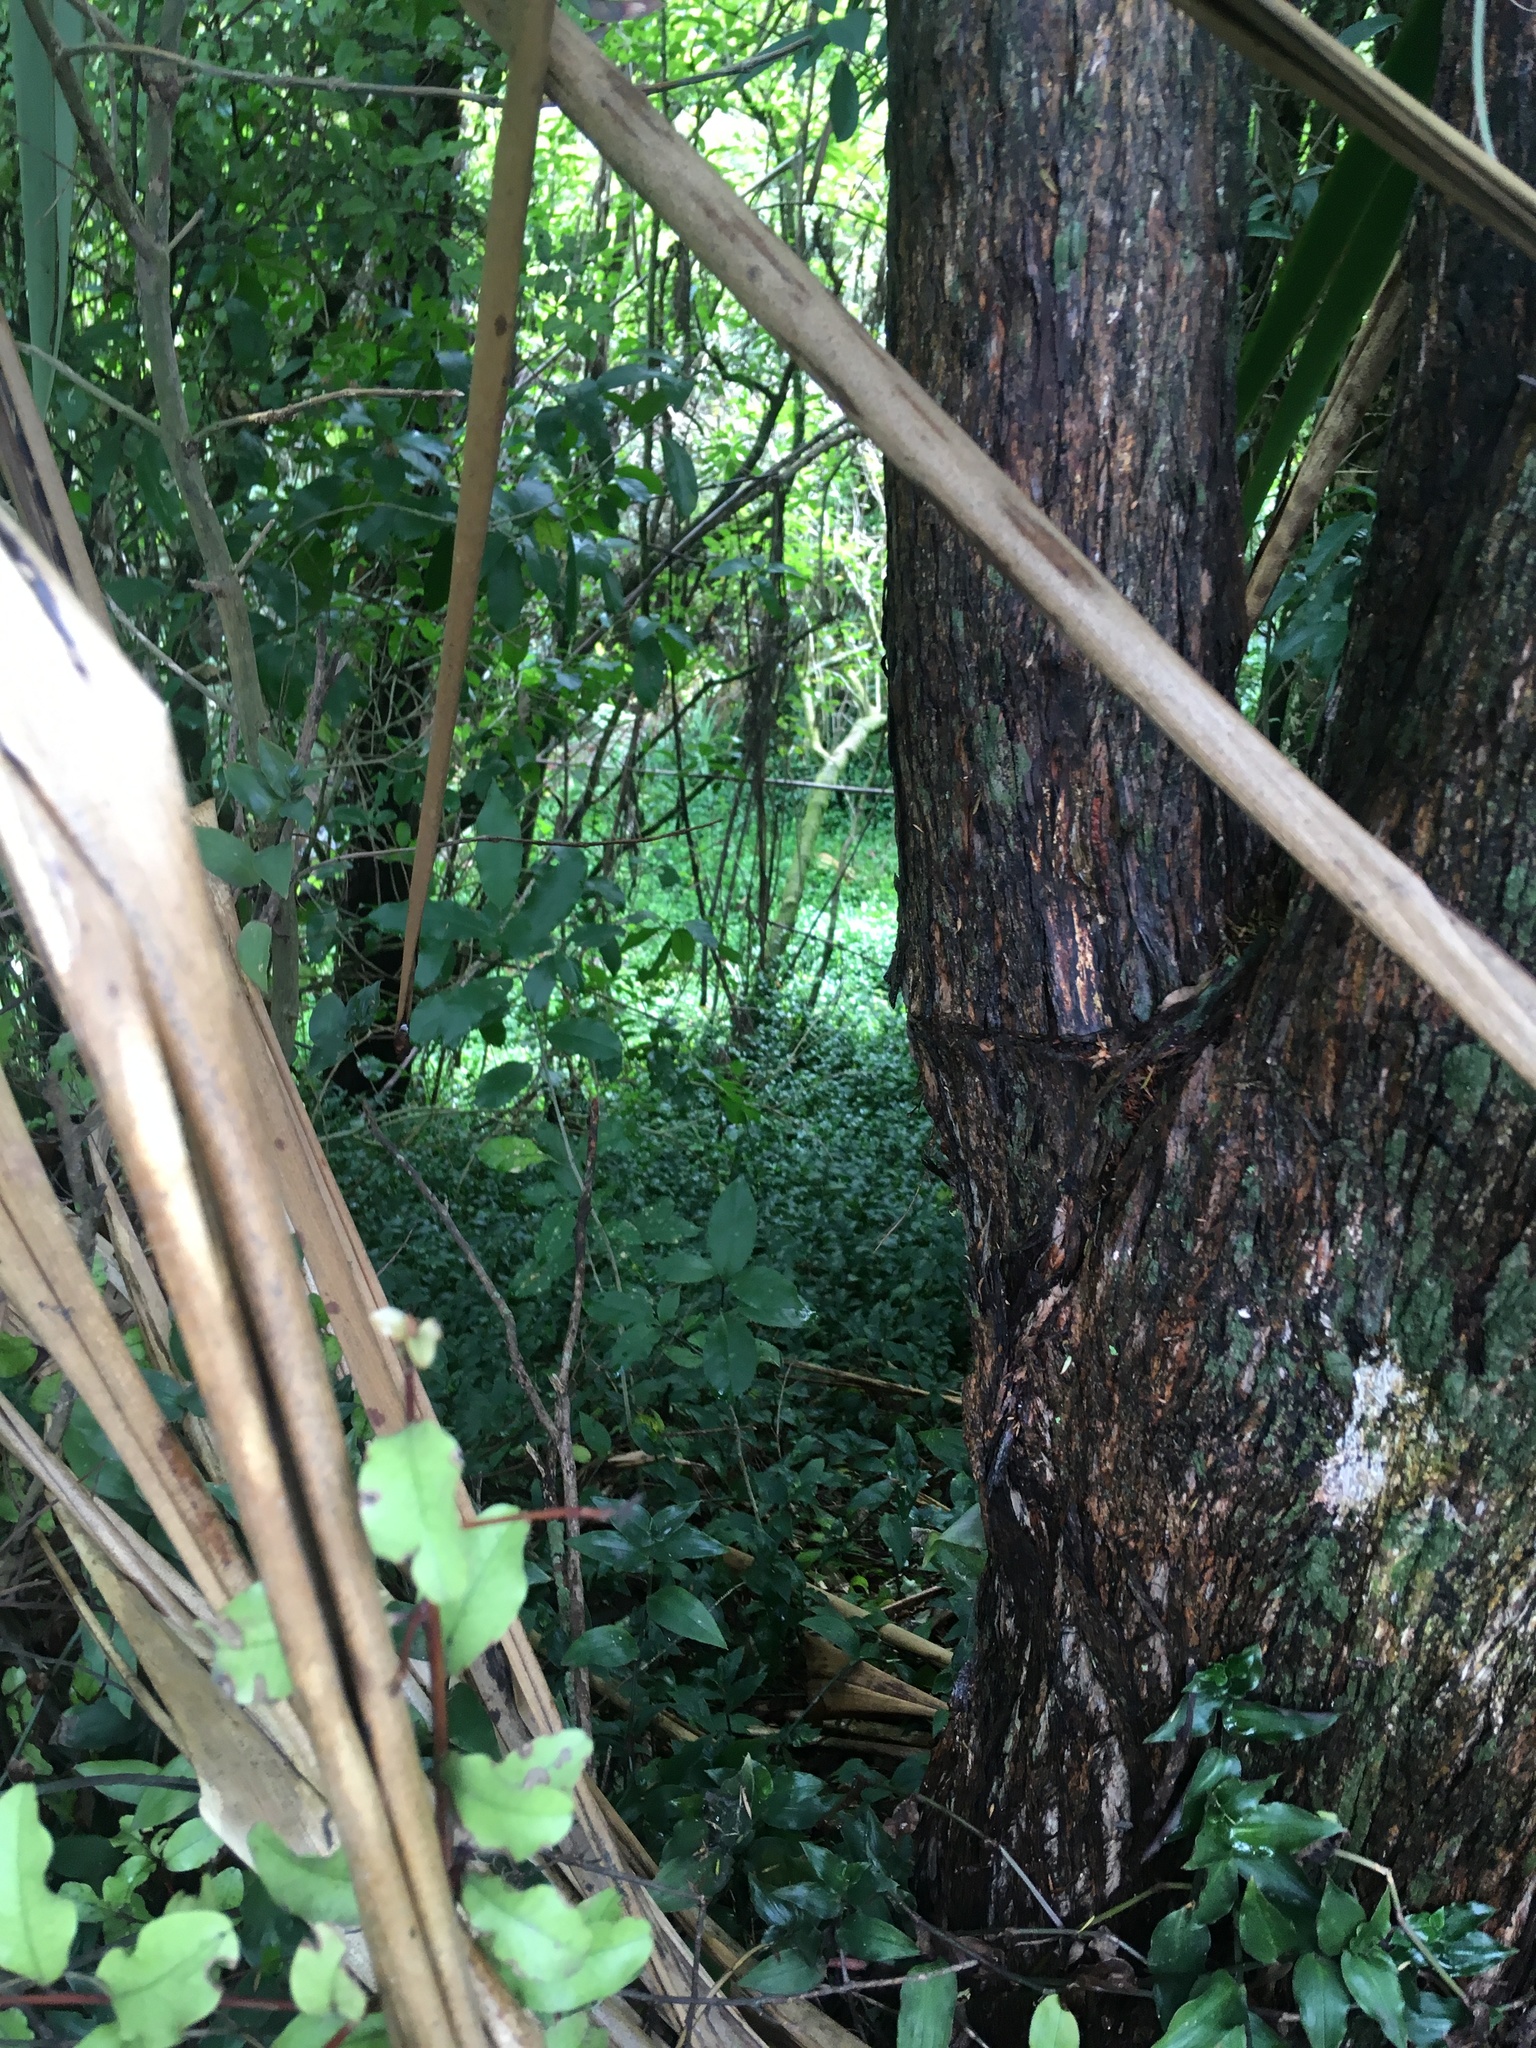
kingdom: Plantae
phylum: Tracheophyta
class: Liliopsida
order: Commelinales
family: Commelinaceae
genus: Tradescantia
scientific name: Tradescantia fluminensis
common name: Wandering-jew
